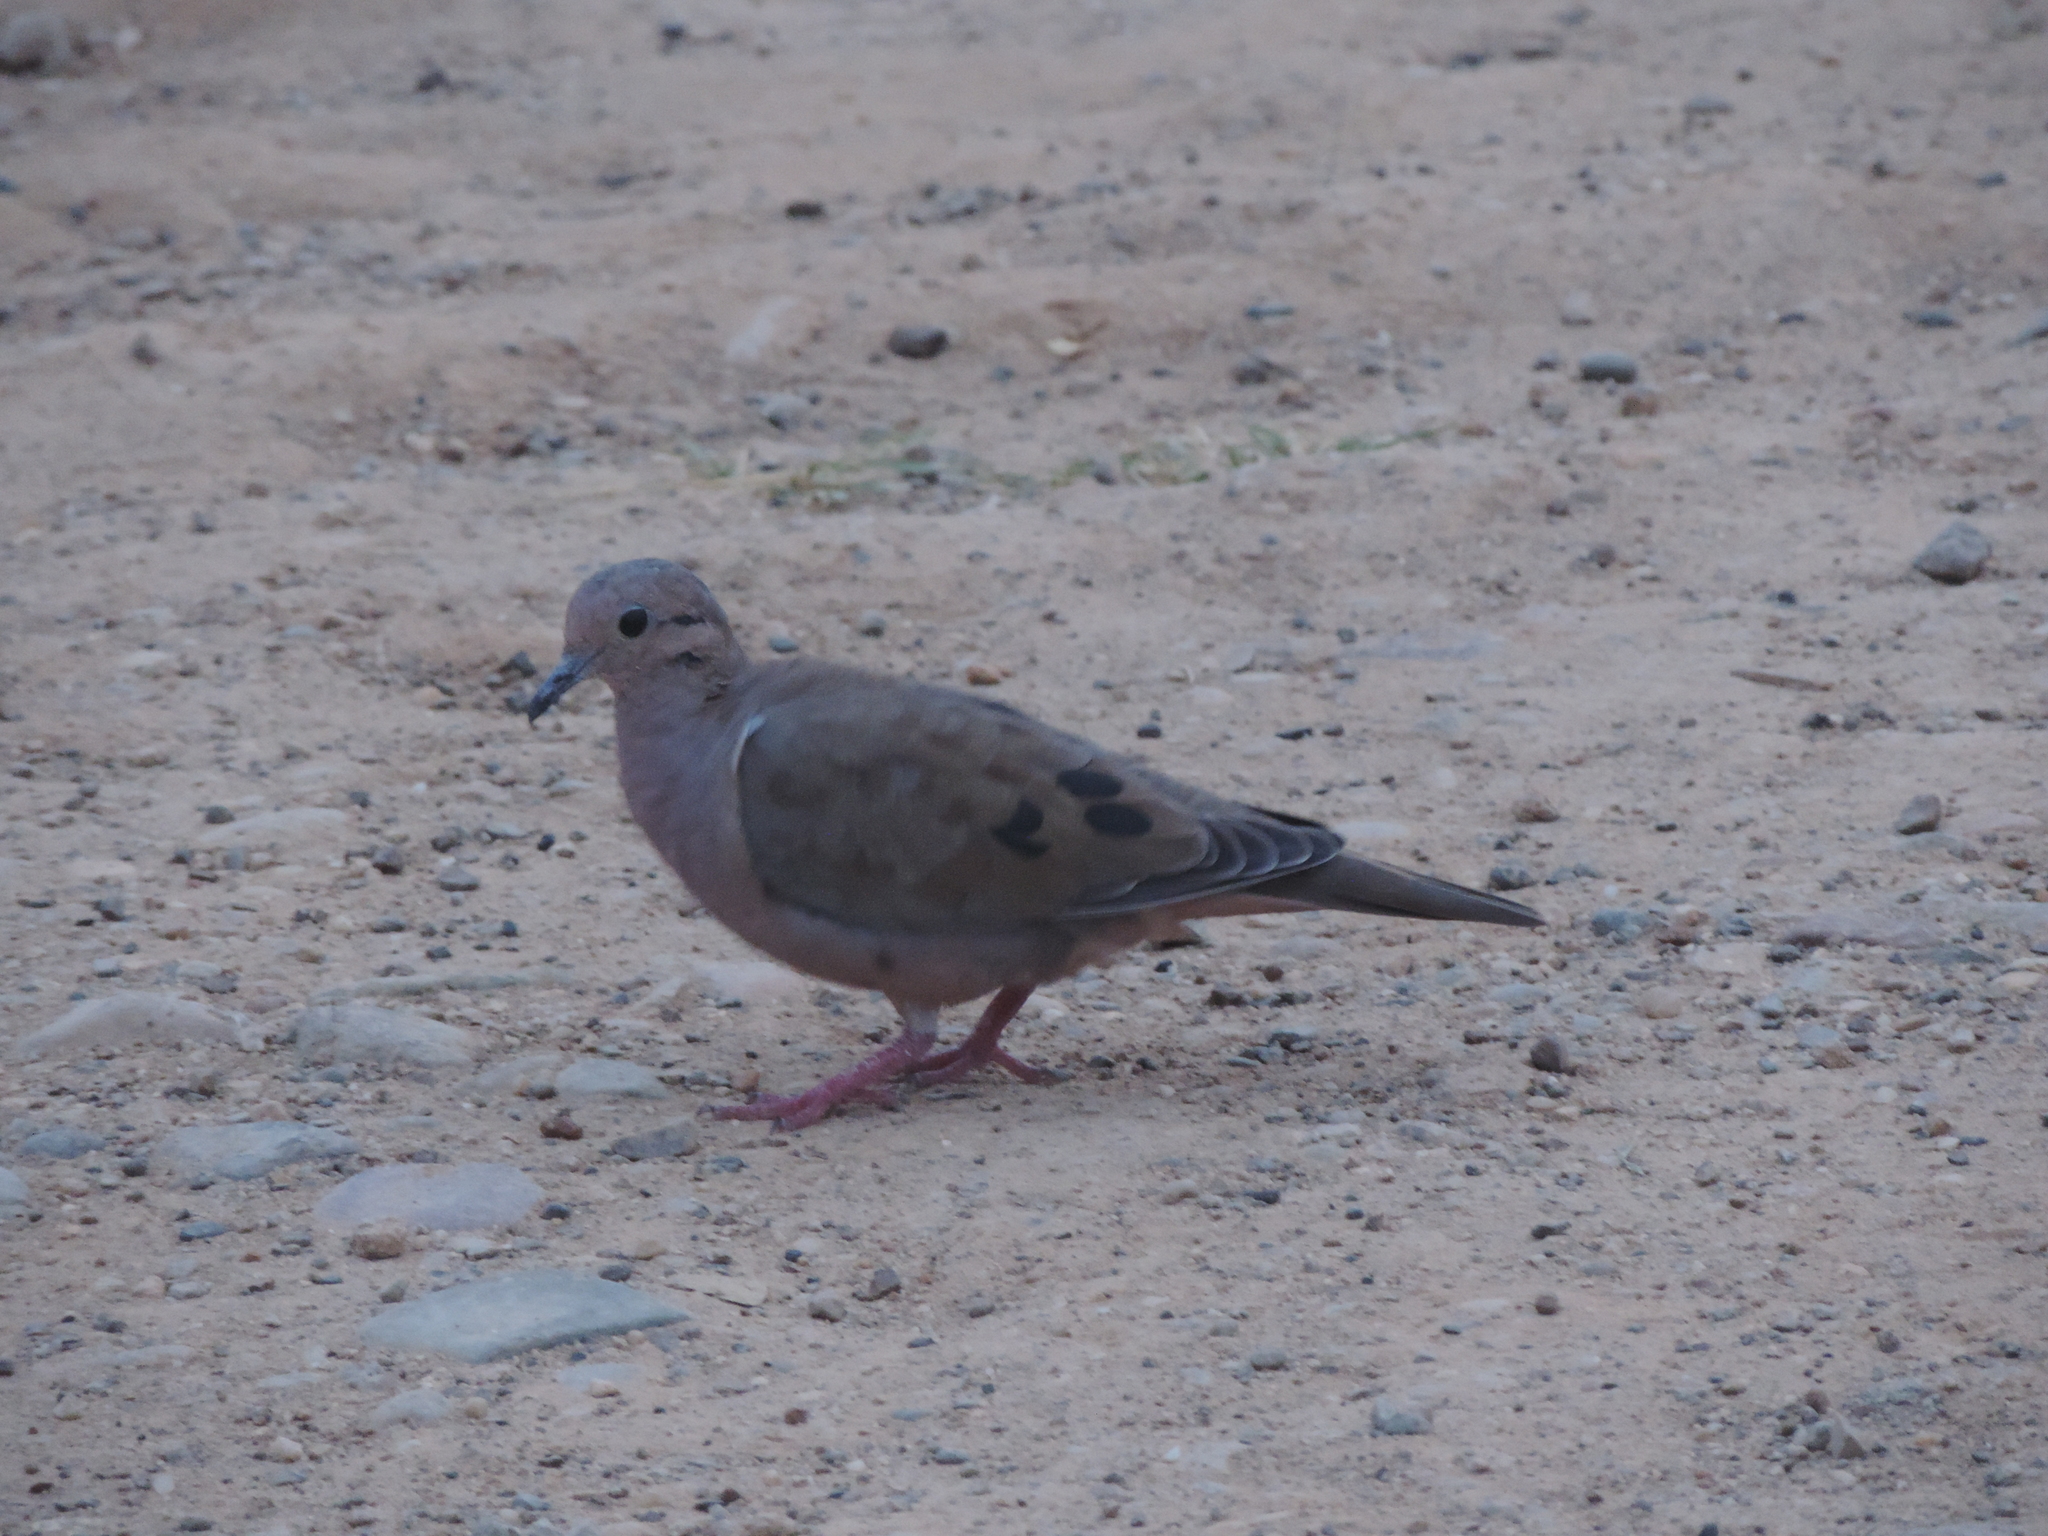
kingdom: Animalia
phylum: Chordata
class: Aves
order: Columbiformes
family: Columbidae
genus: Zenaida
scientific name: Zenaida auriculata
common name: Eared dove
